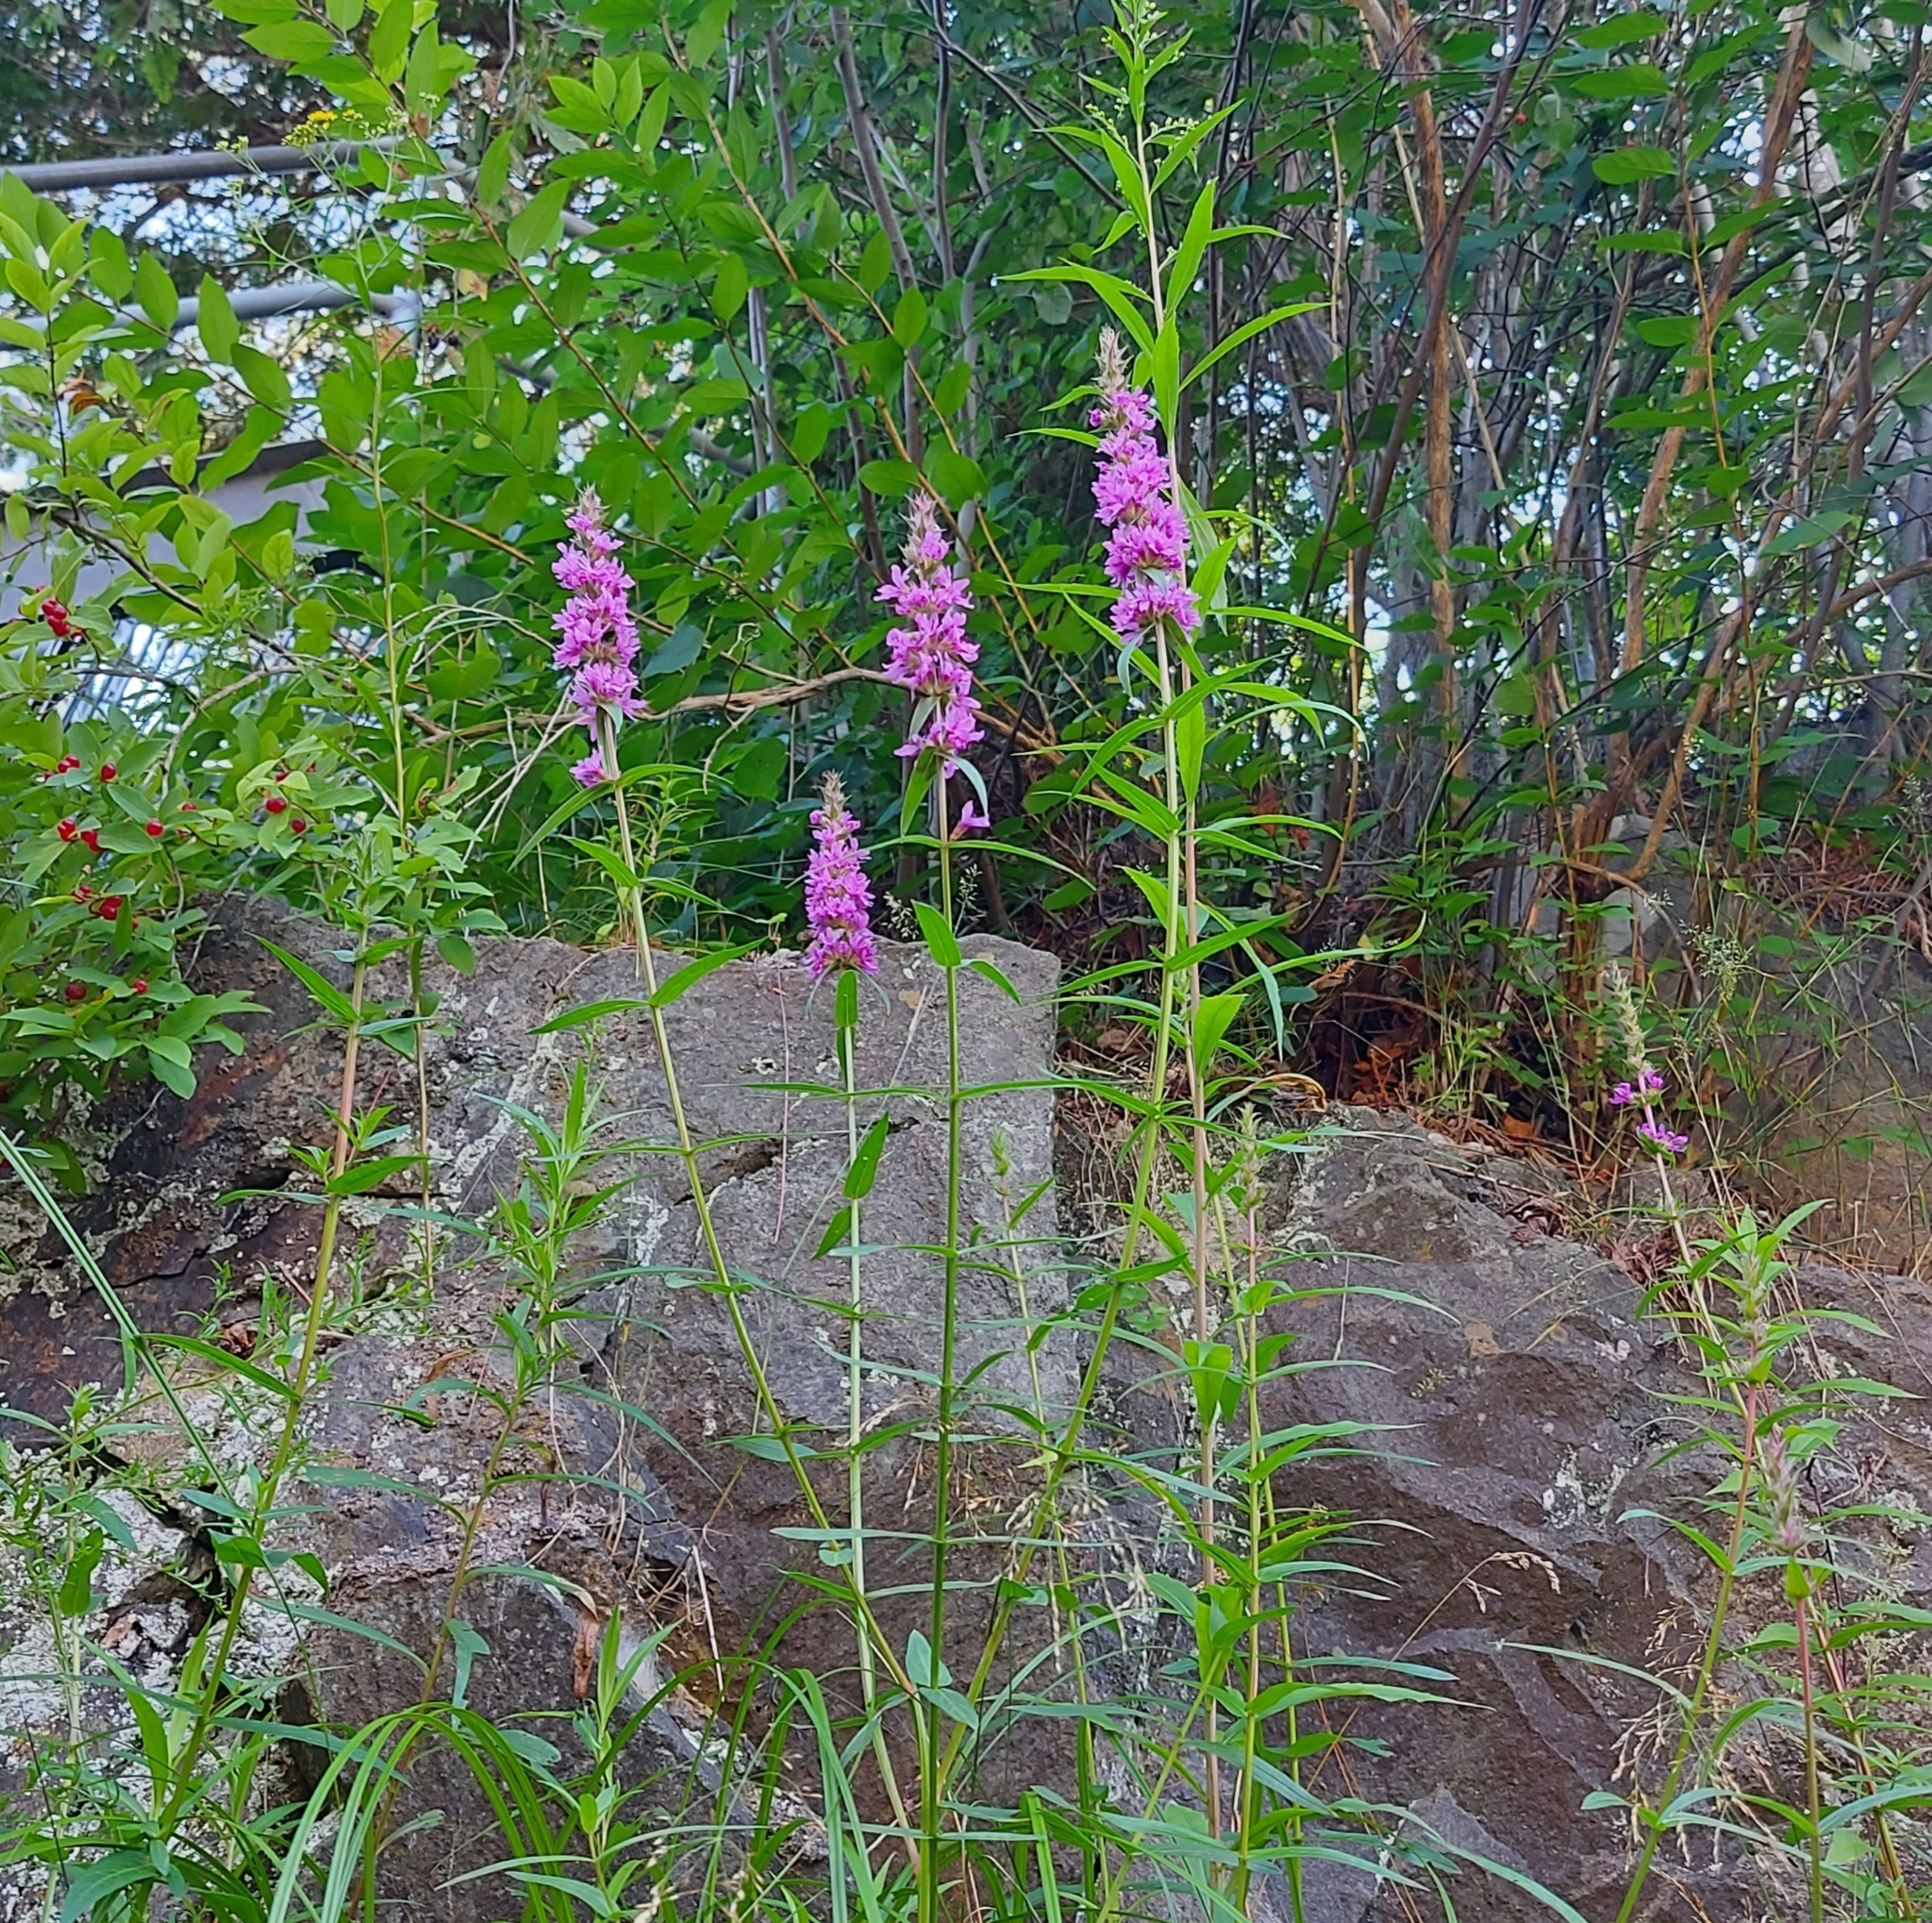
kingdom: Plantae
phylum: Tracheophyta
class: Magnoliopsida
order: Myrtales
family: Lythraceae
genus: Lythrum
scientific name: Lythrum salicaria
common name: Purple loosestrife
